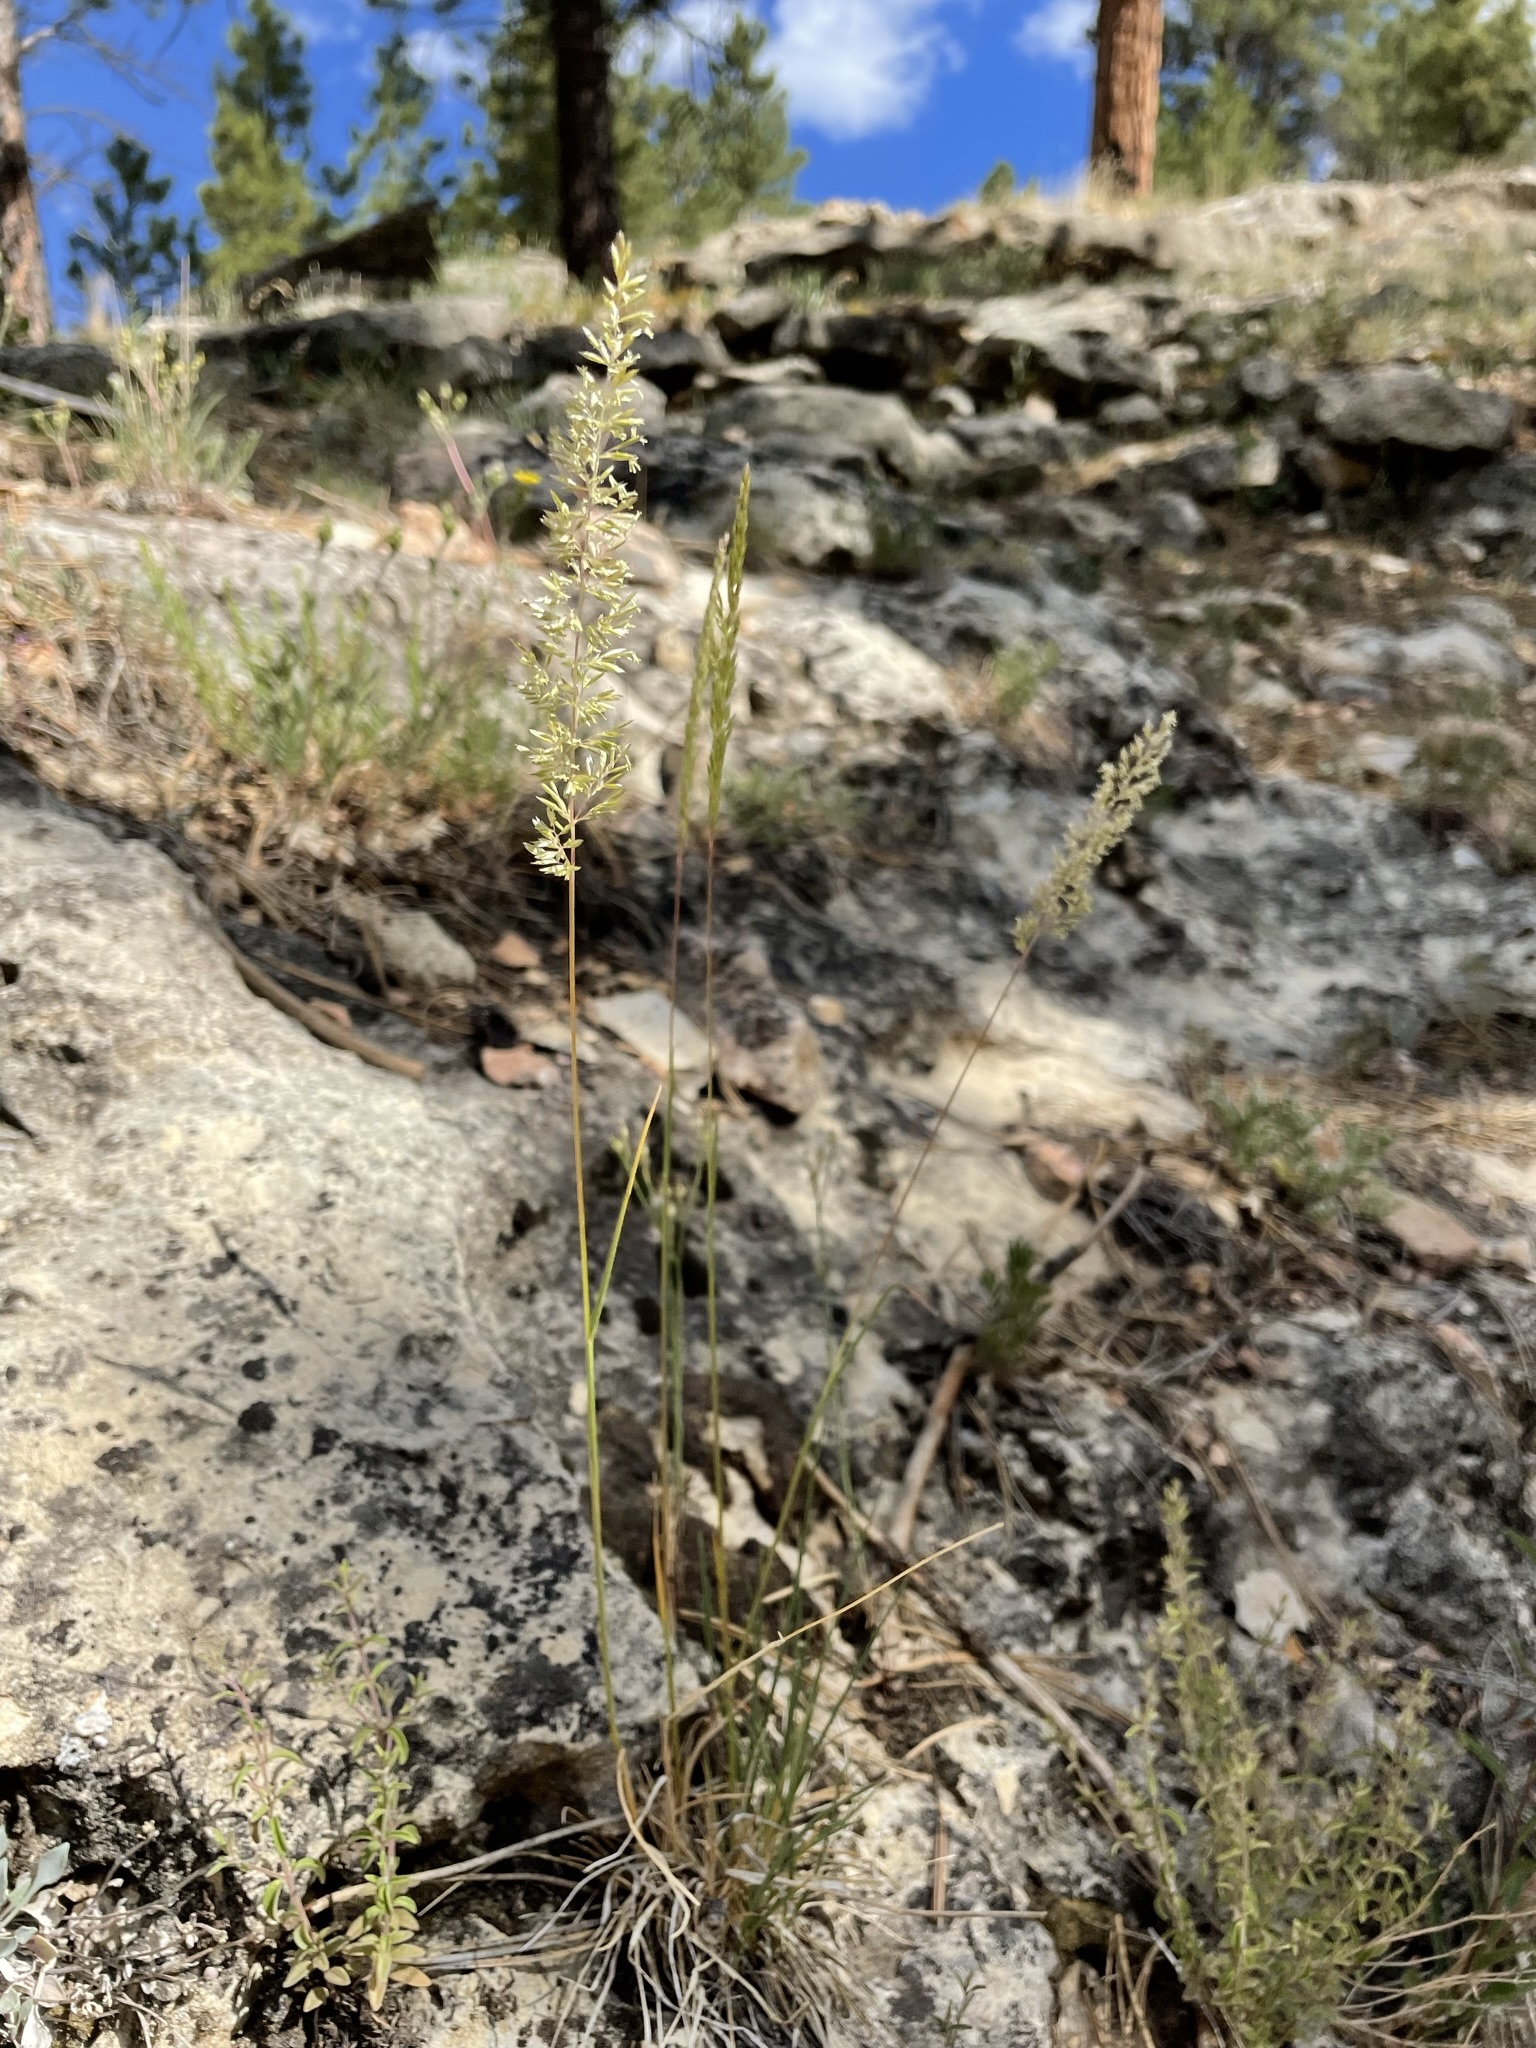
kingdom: Plantae
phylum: Tracheophyta
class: Liliopsida
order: Poales
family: Poaceae
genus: Koeleria
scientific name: Koeleria macrantha
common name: Crested hair-grass
